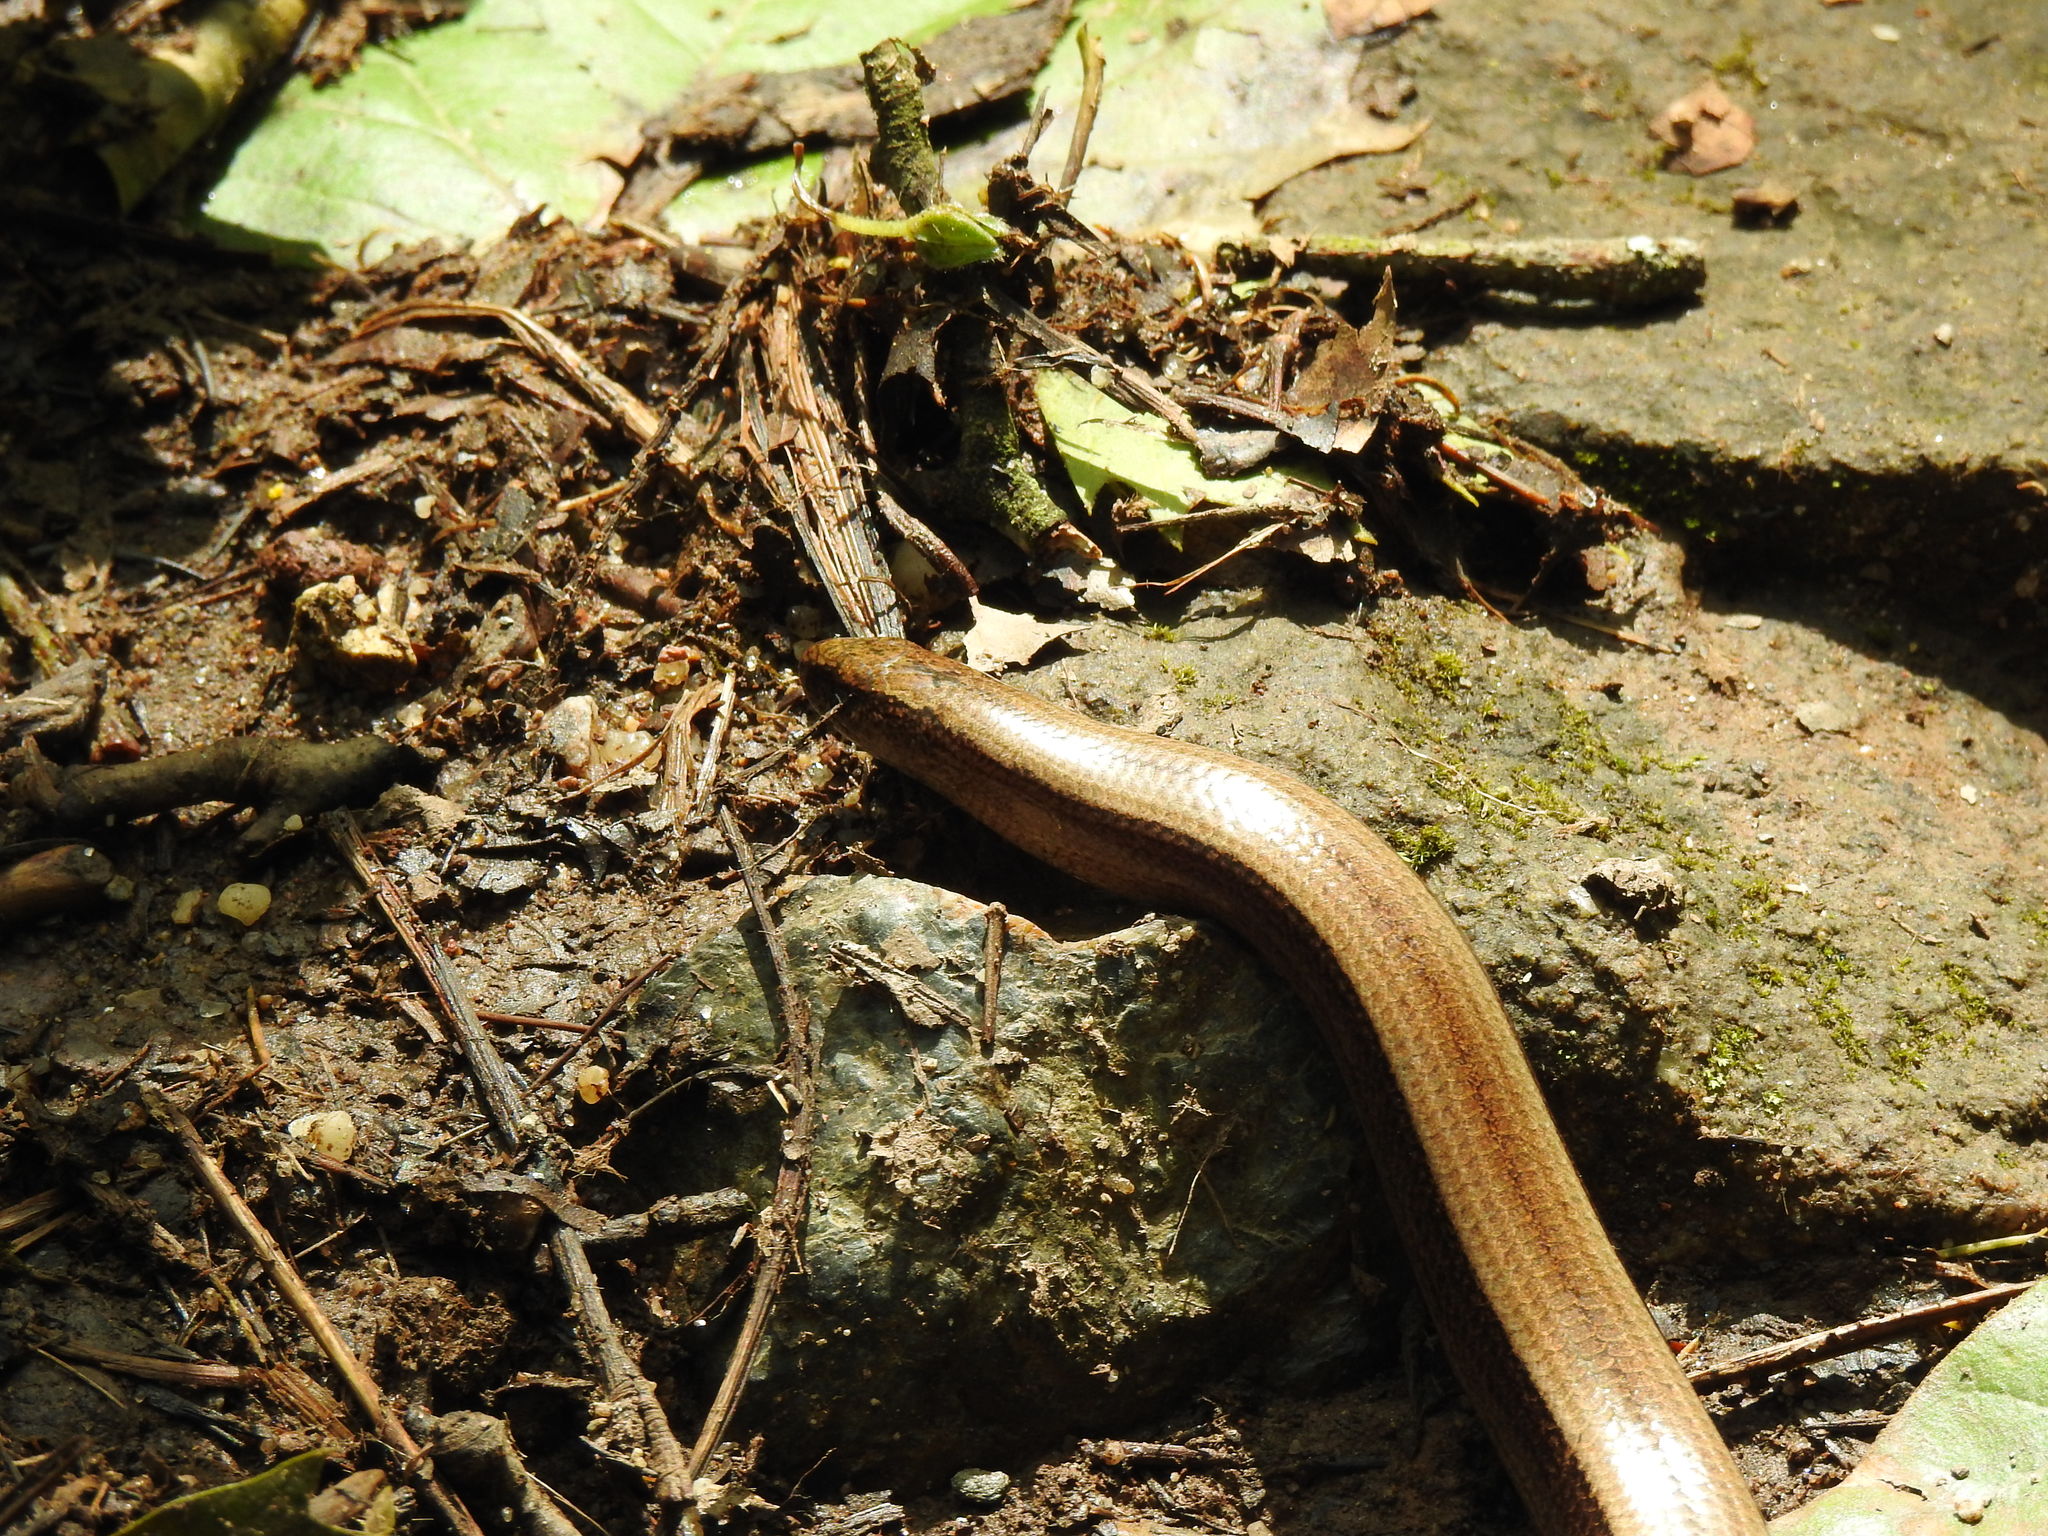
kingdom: Animalia
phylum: Chordata
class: Squamata
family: Anguidae
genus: Anguis
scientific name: Anguis fragilis
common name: Slow worm
